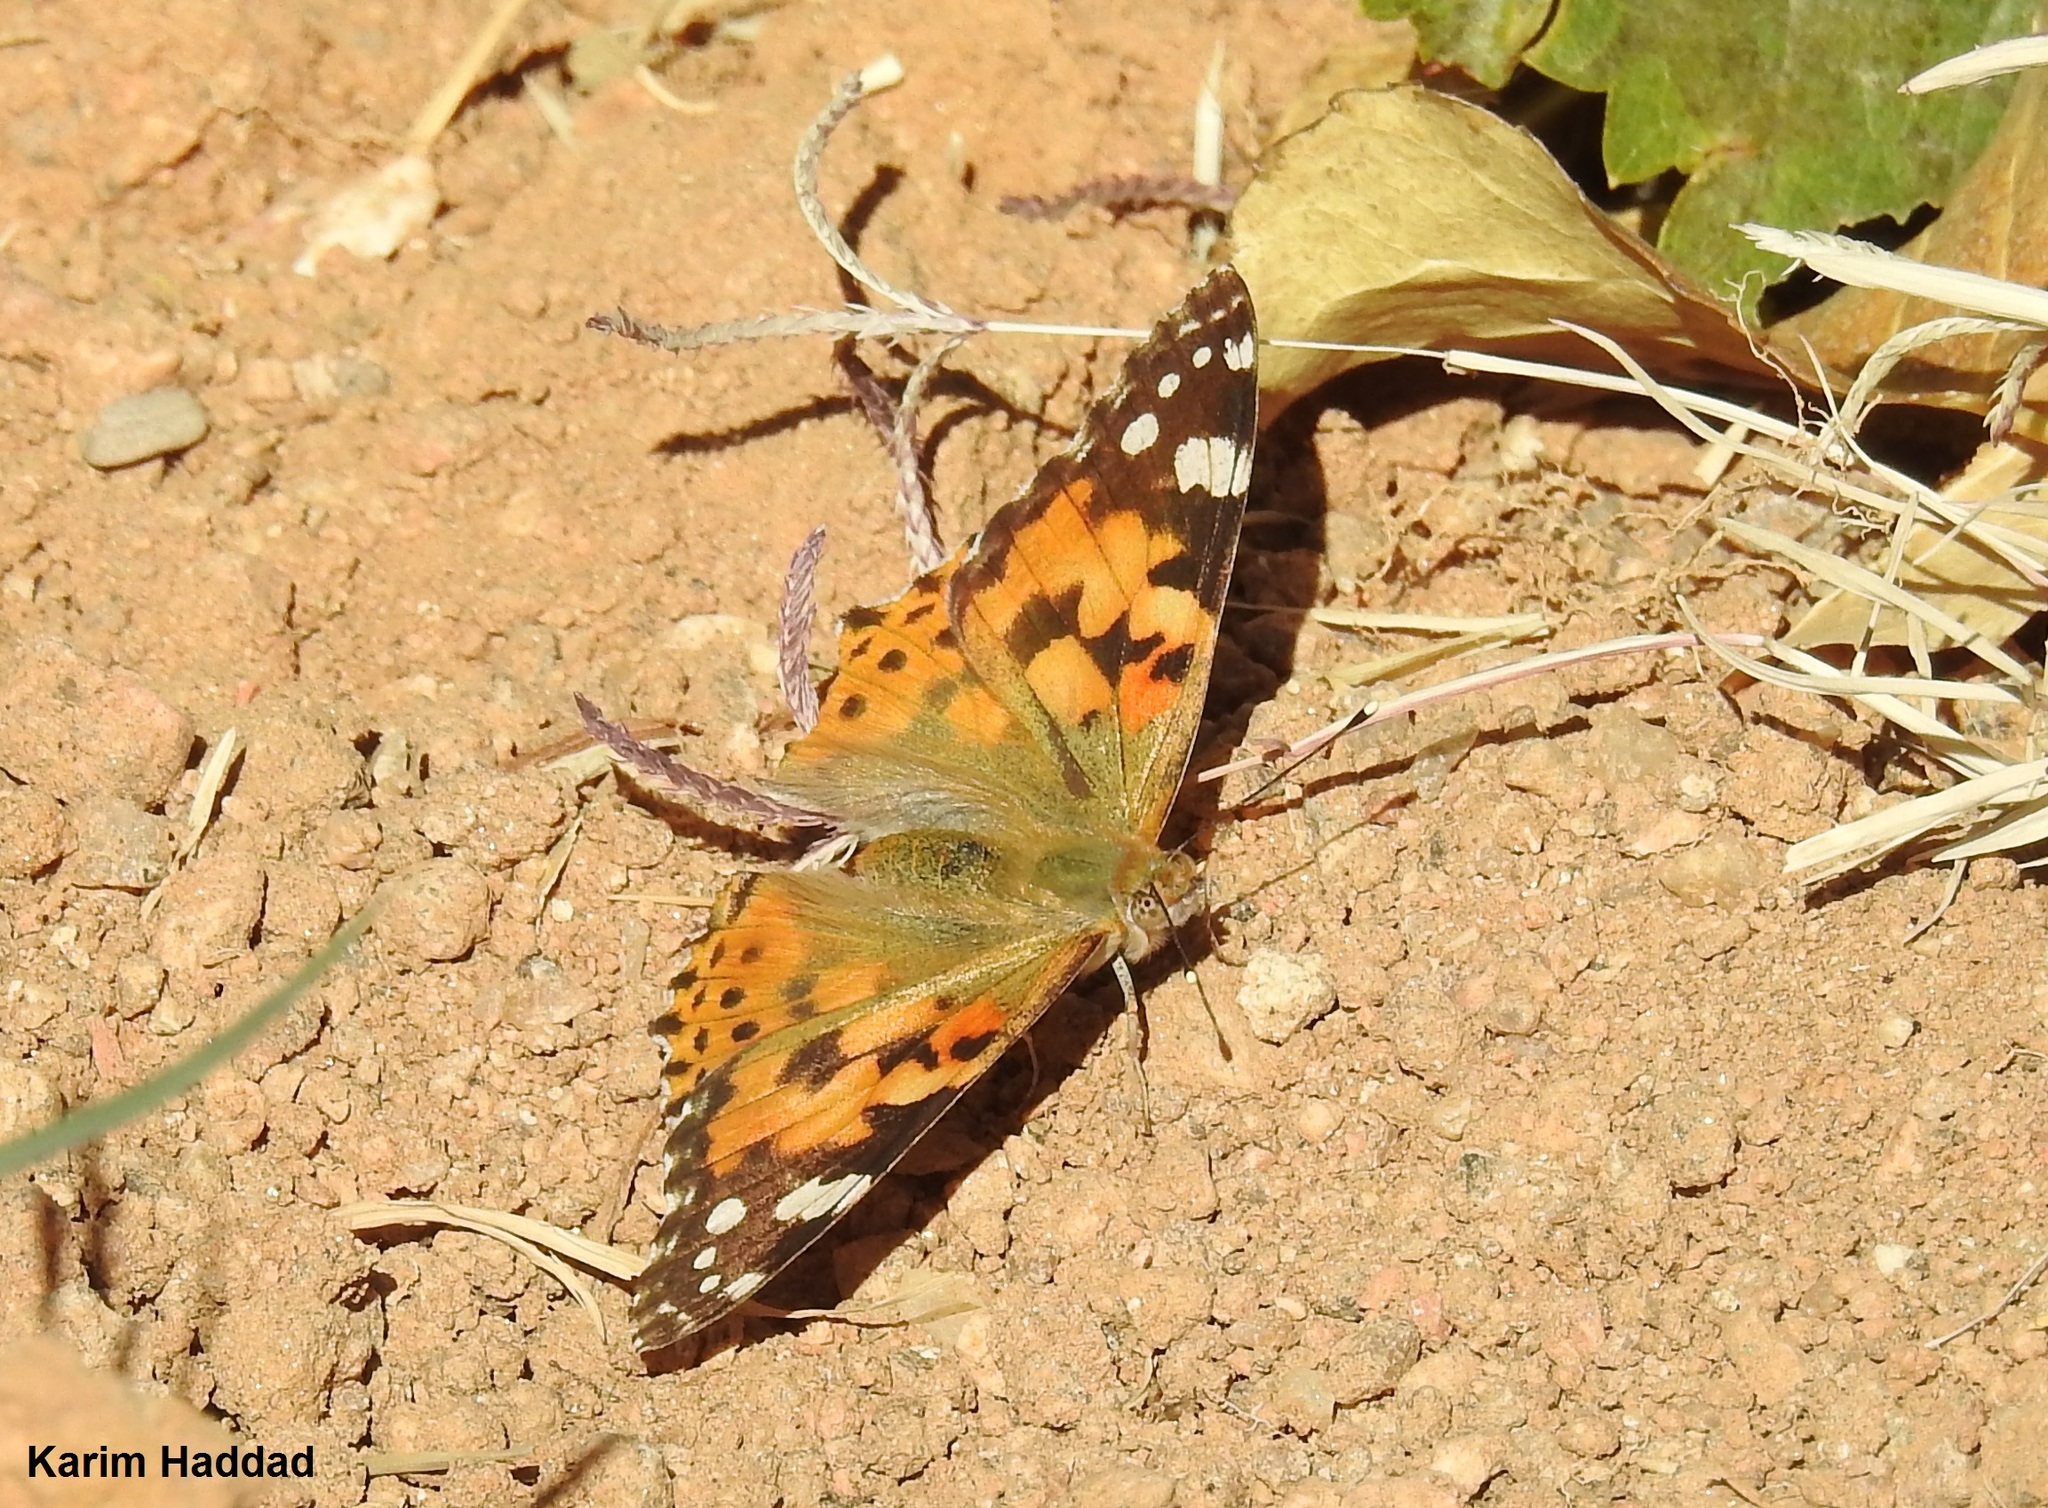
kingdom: Animalia
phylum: Arthropoda
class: Insecta
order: Lepidoptera
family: Nymphalidae
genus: Vanessa
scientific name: Vanessa cardui
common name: Painted lady
